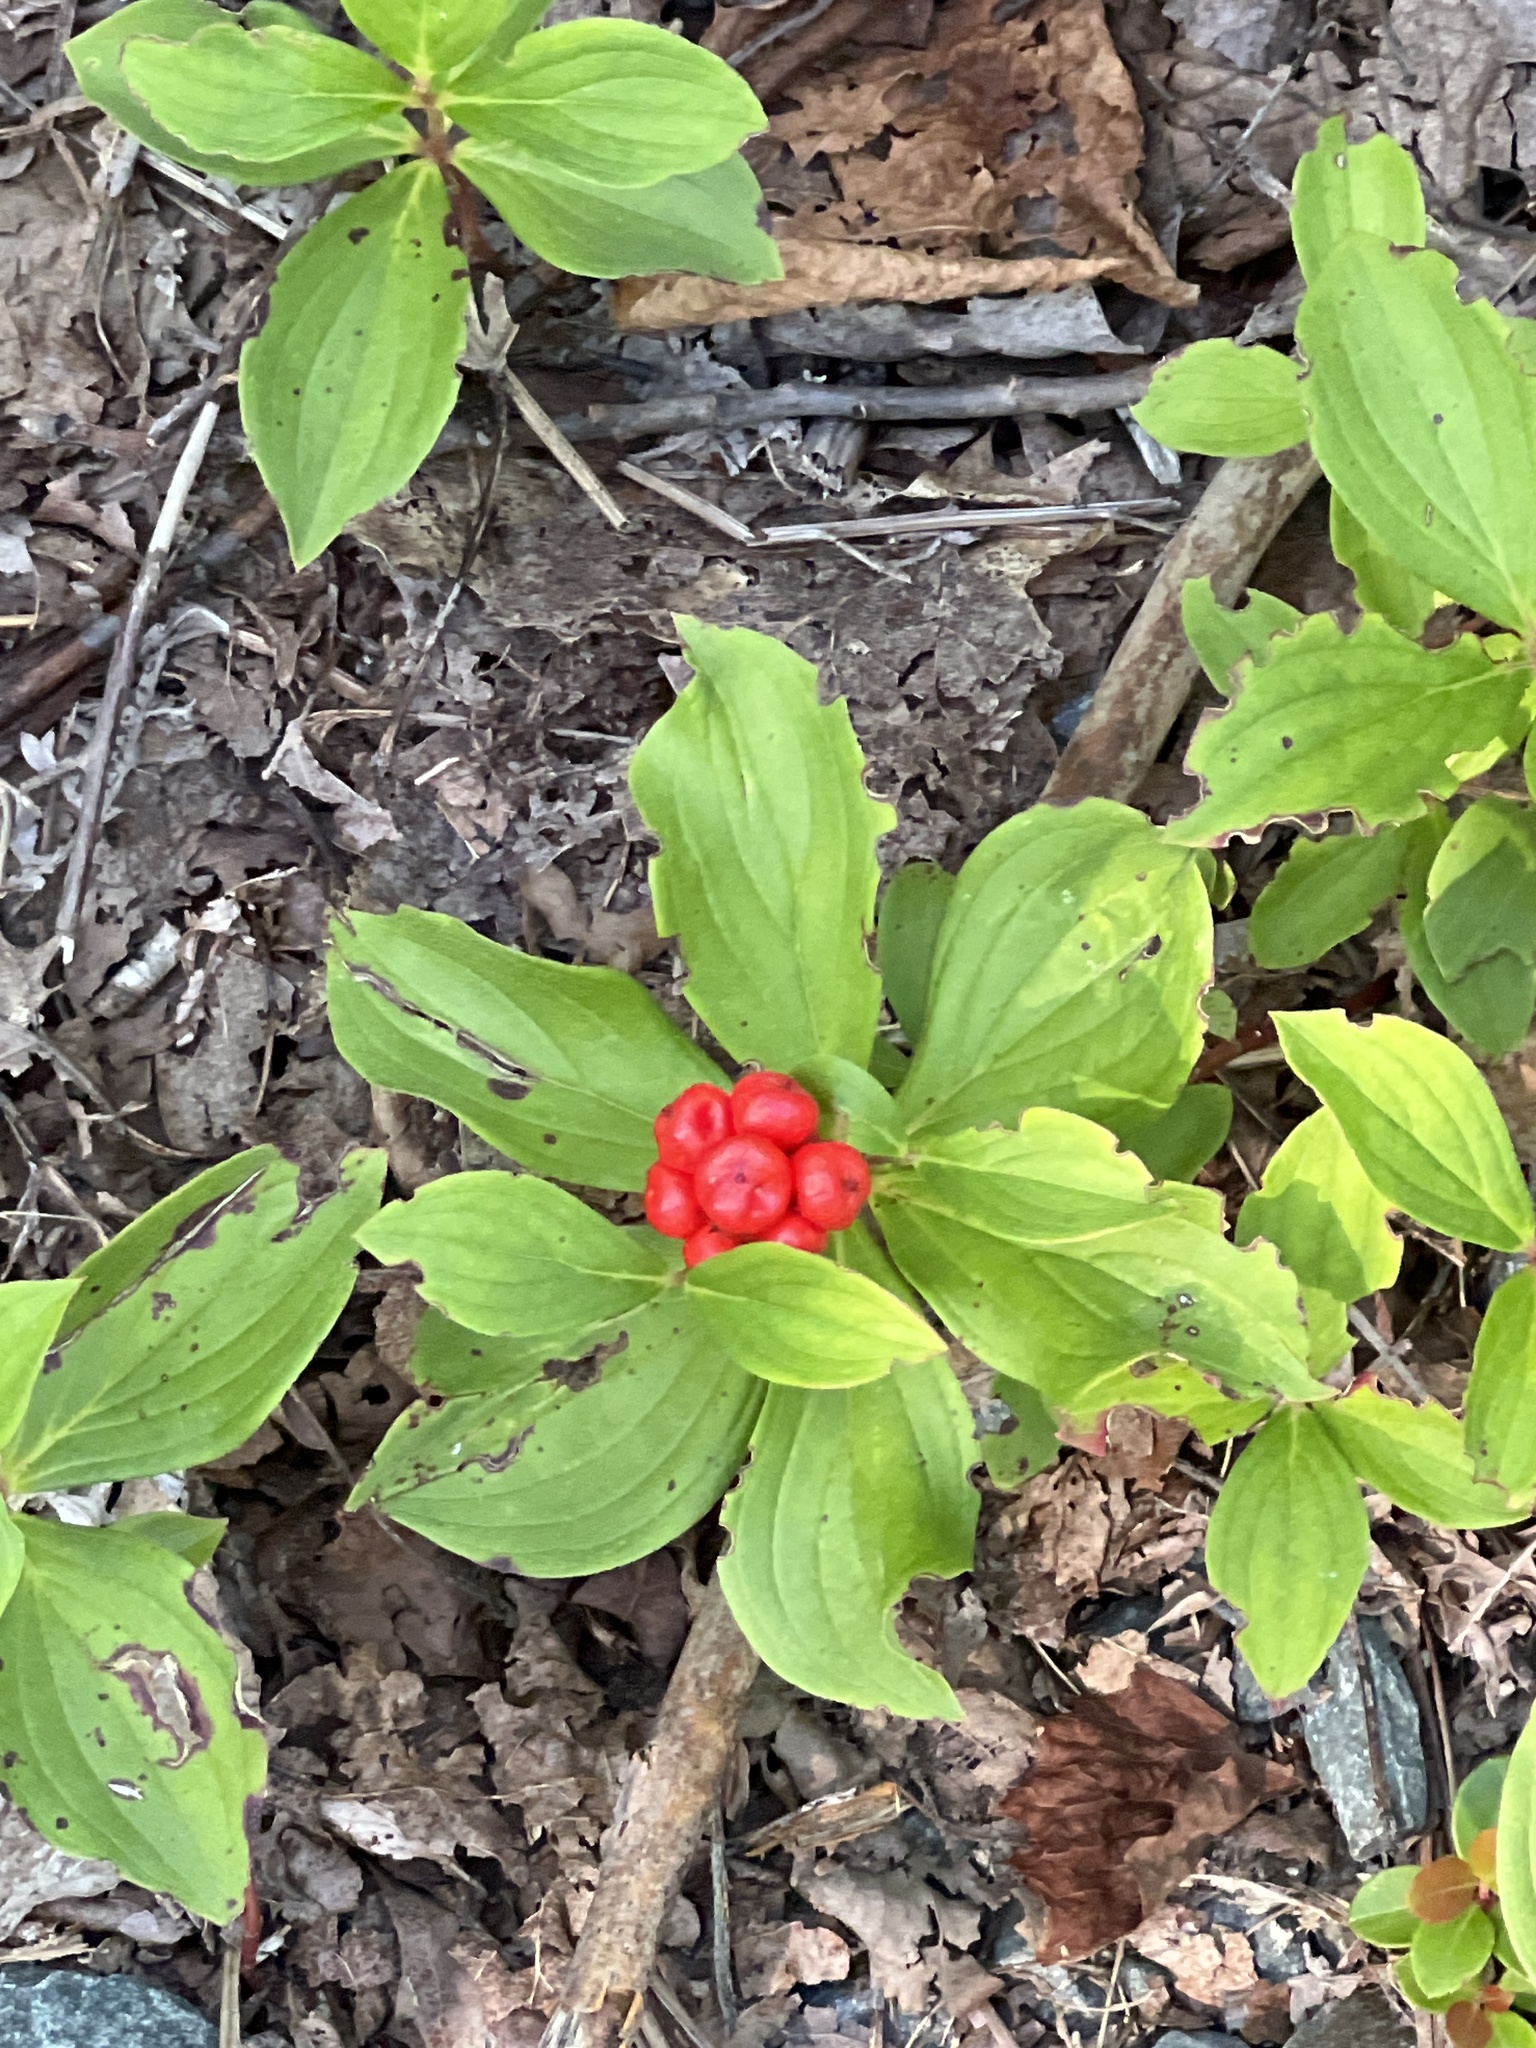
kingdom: Plantae
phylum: Tracheophyta
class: Magnoliopsida
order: Cornales
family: Cornaceae
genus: Cornus
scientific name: Cornus canadensis
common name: Creeping dogwood
